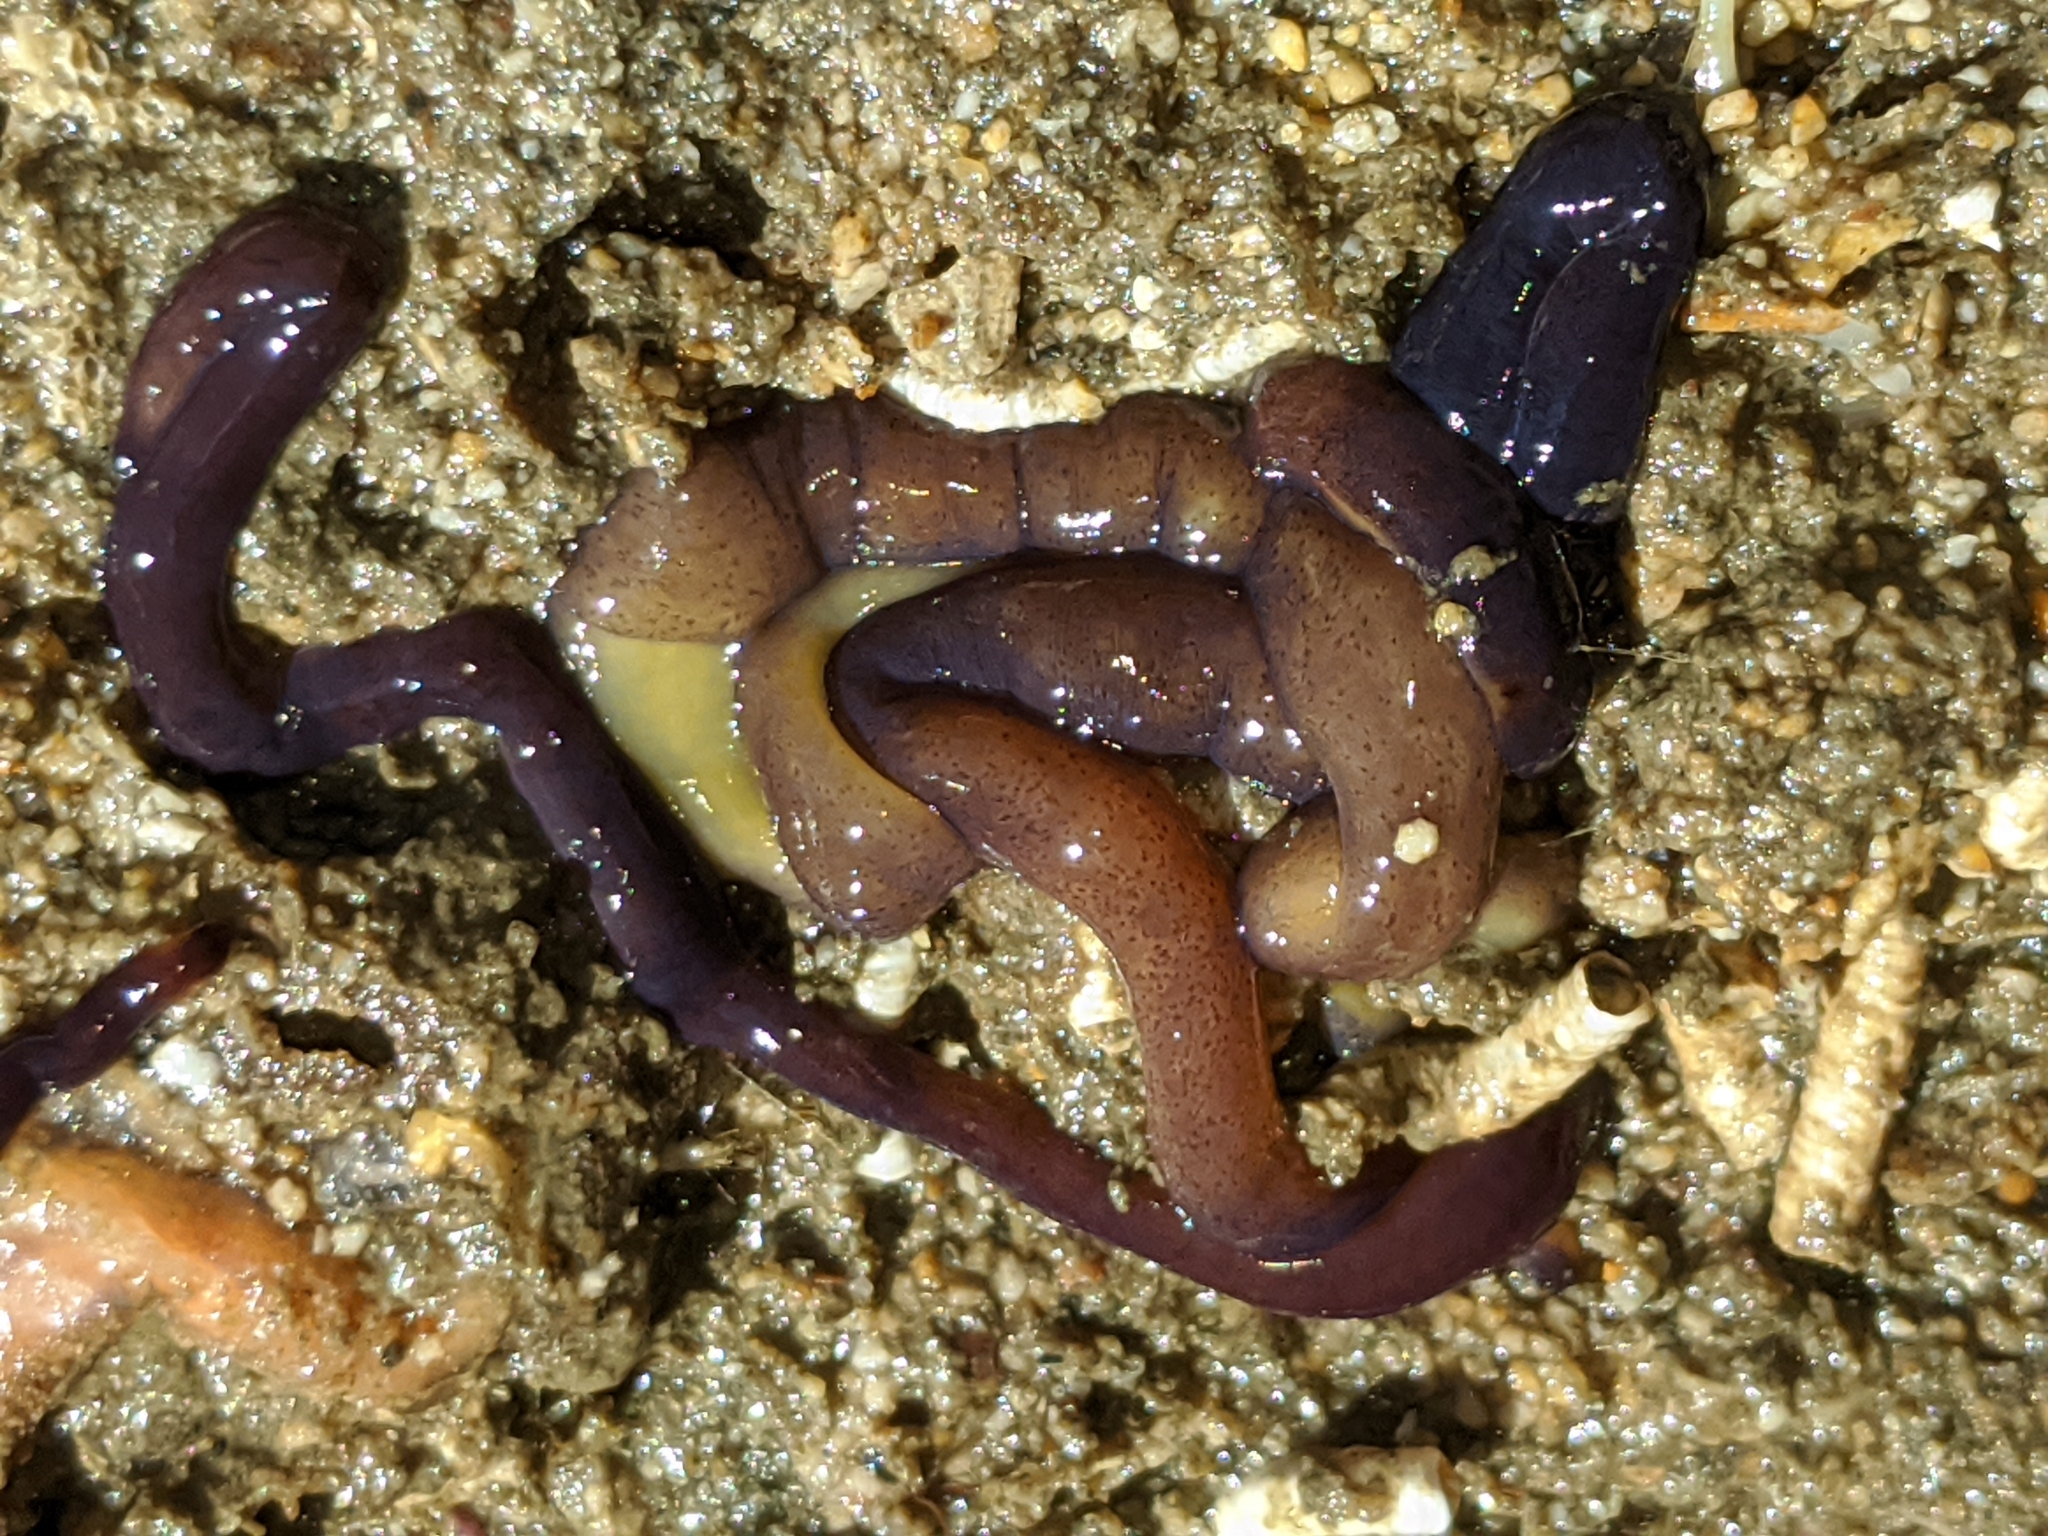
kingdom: Animalia
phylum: Nemertea
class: Hoplonemertea
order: Monostilifera
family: Neesiidae
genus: Paranemertes
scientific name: Paranemertes peregrina
